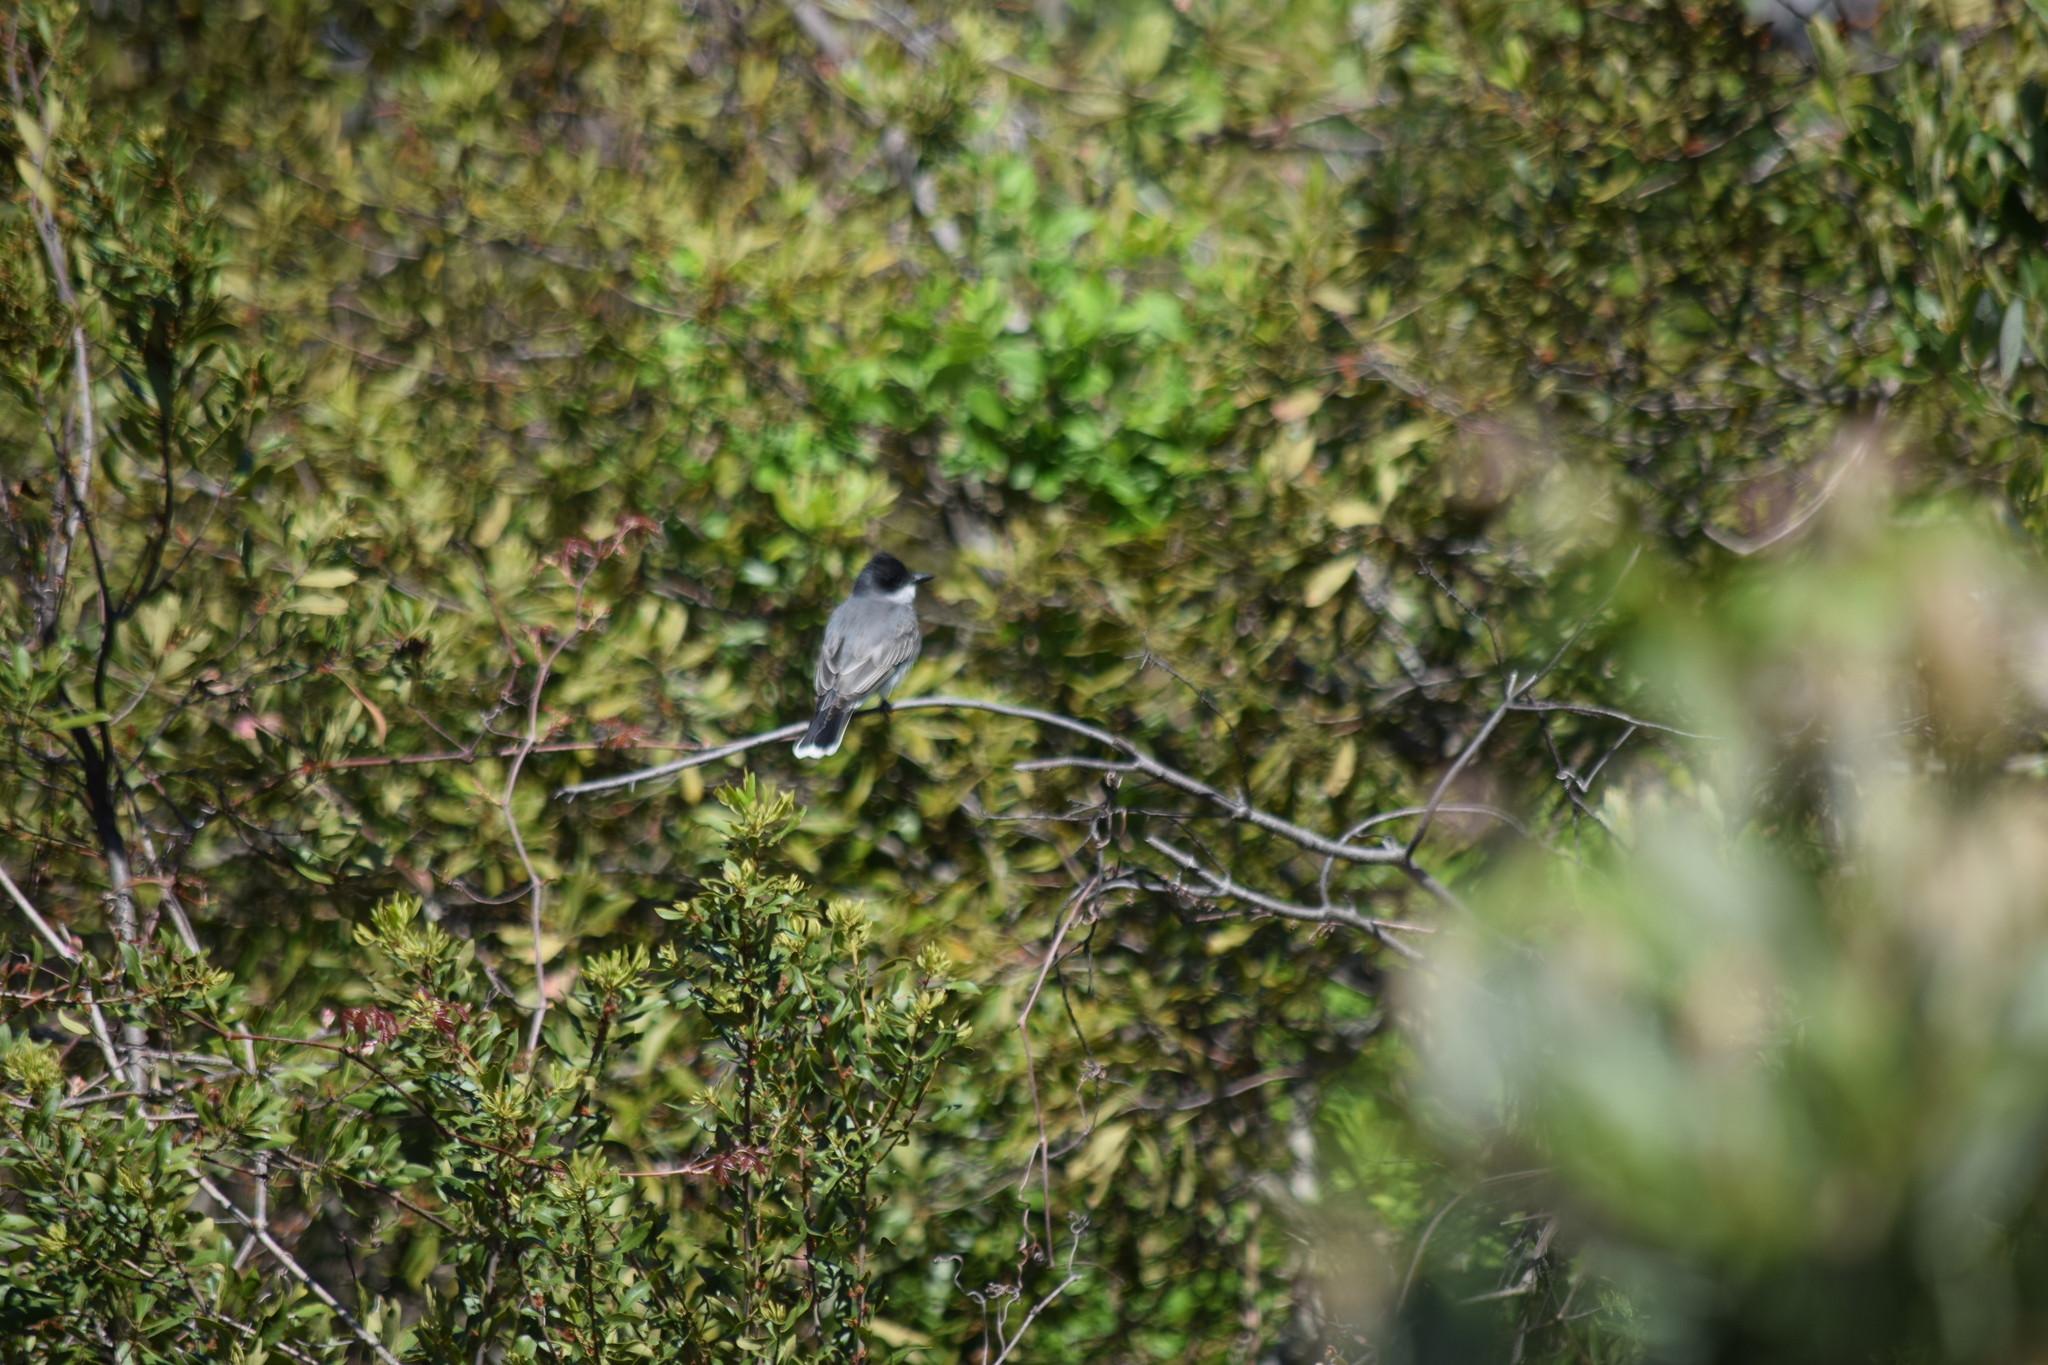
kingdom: Animalia
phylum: Chordata
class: Aves
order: Passeriformes
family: Tyrannidae
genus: Tyrannus
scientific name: Tyrannus tyrannus
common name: Eastern kingbird
